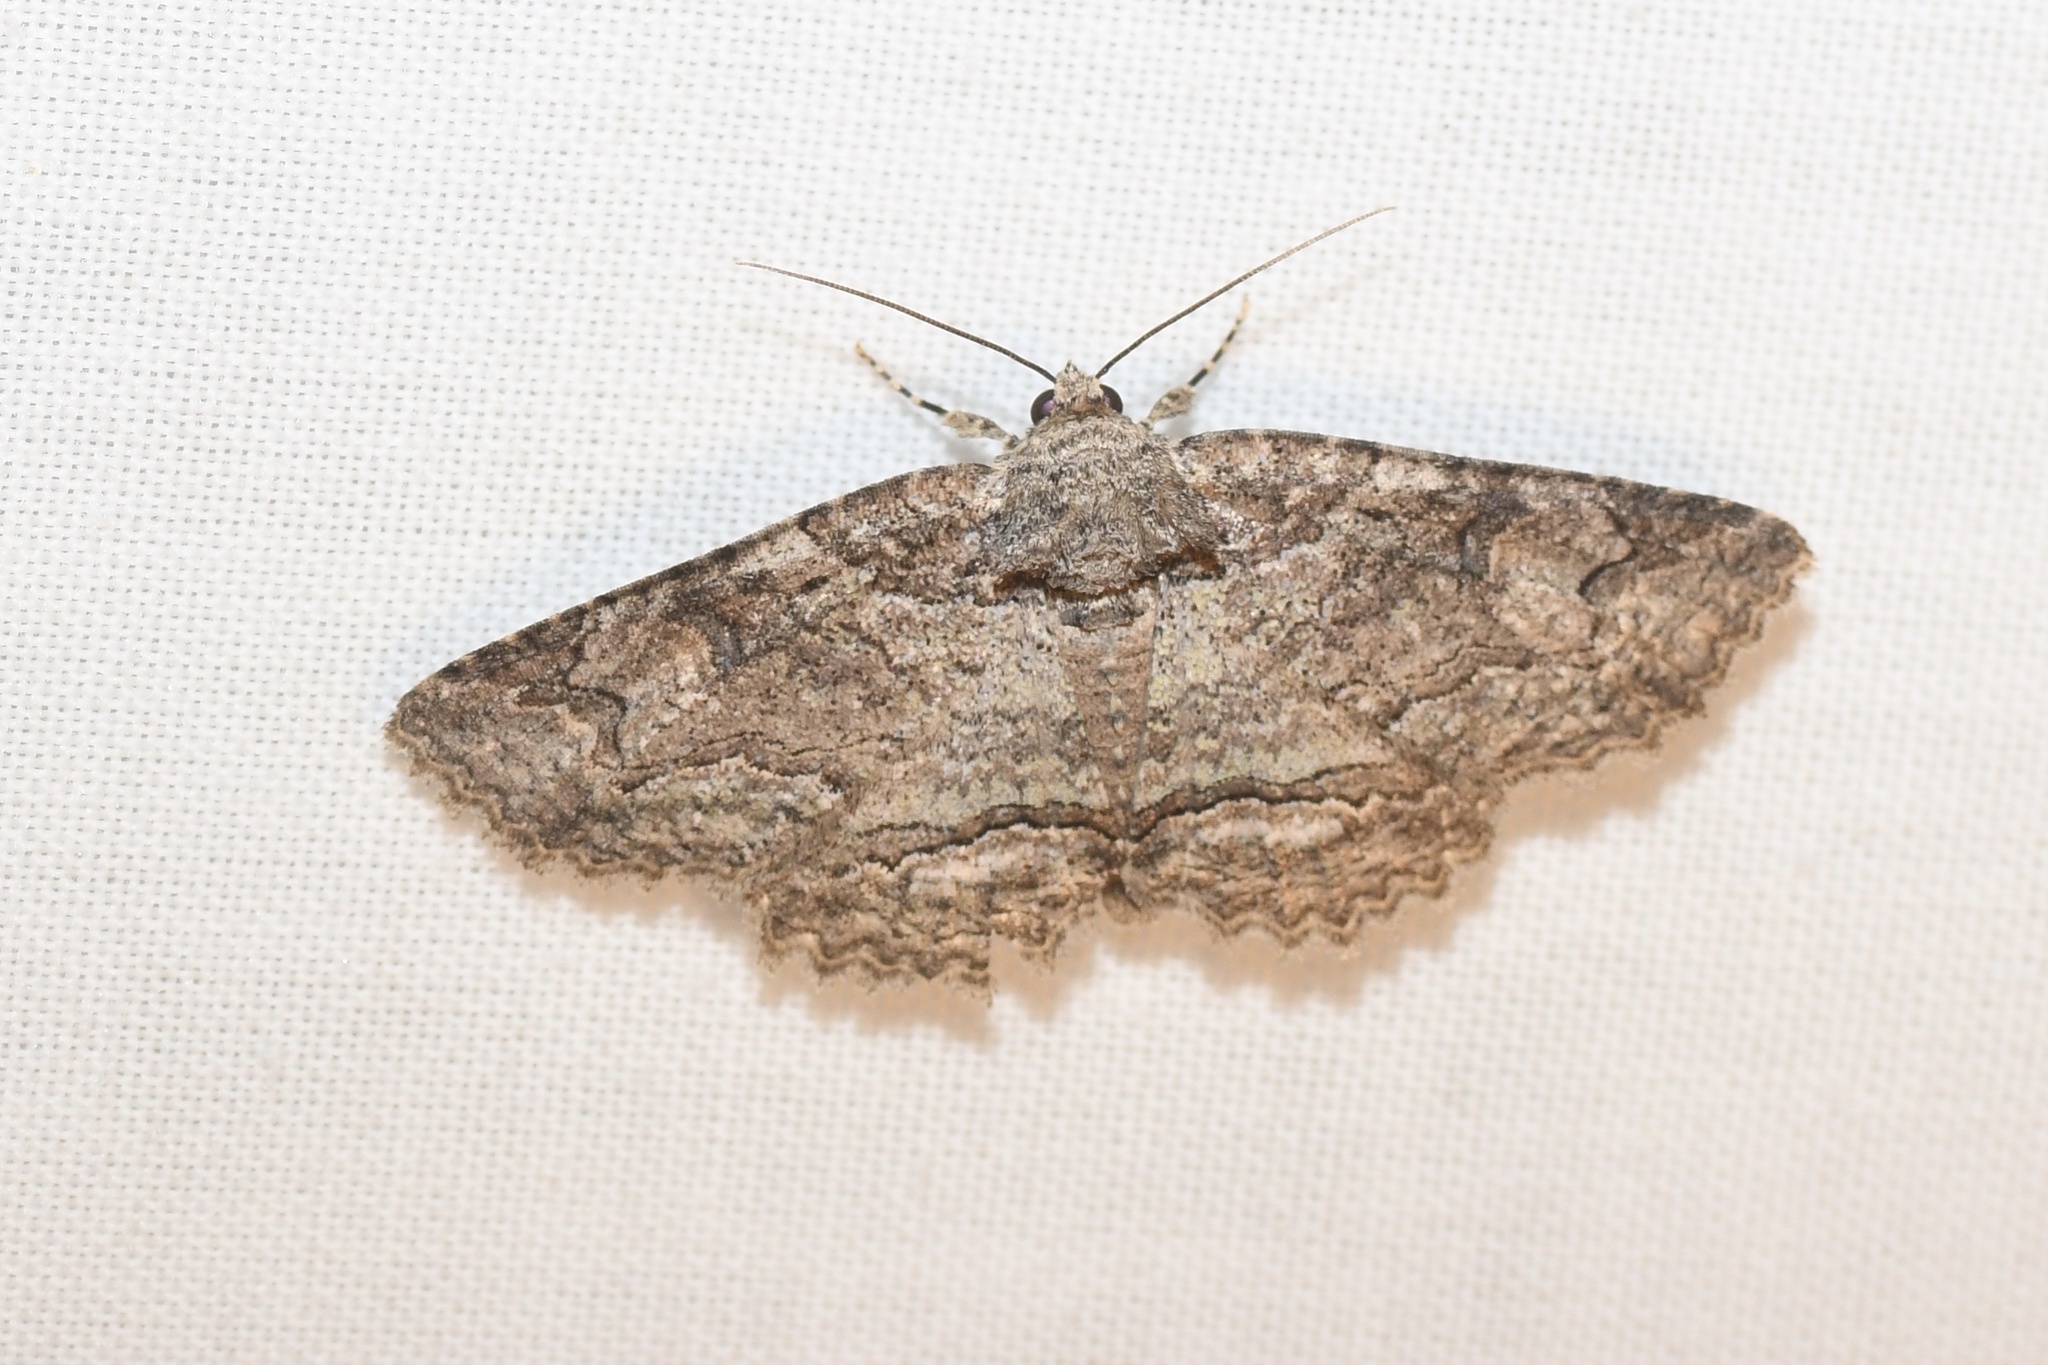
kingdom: Animalia
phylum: Arthropoda
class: Insecta
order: Lepidoptera
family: Erebidae
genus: Zale
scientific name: Zale galbanata
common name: Maple zale
